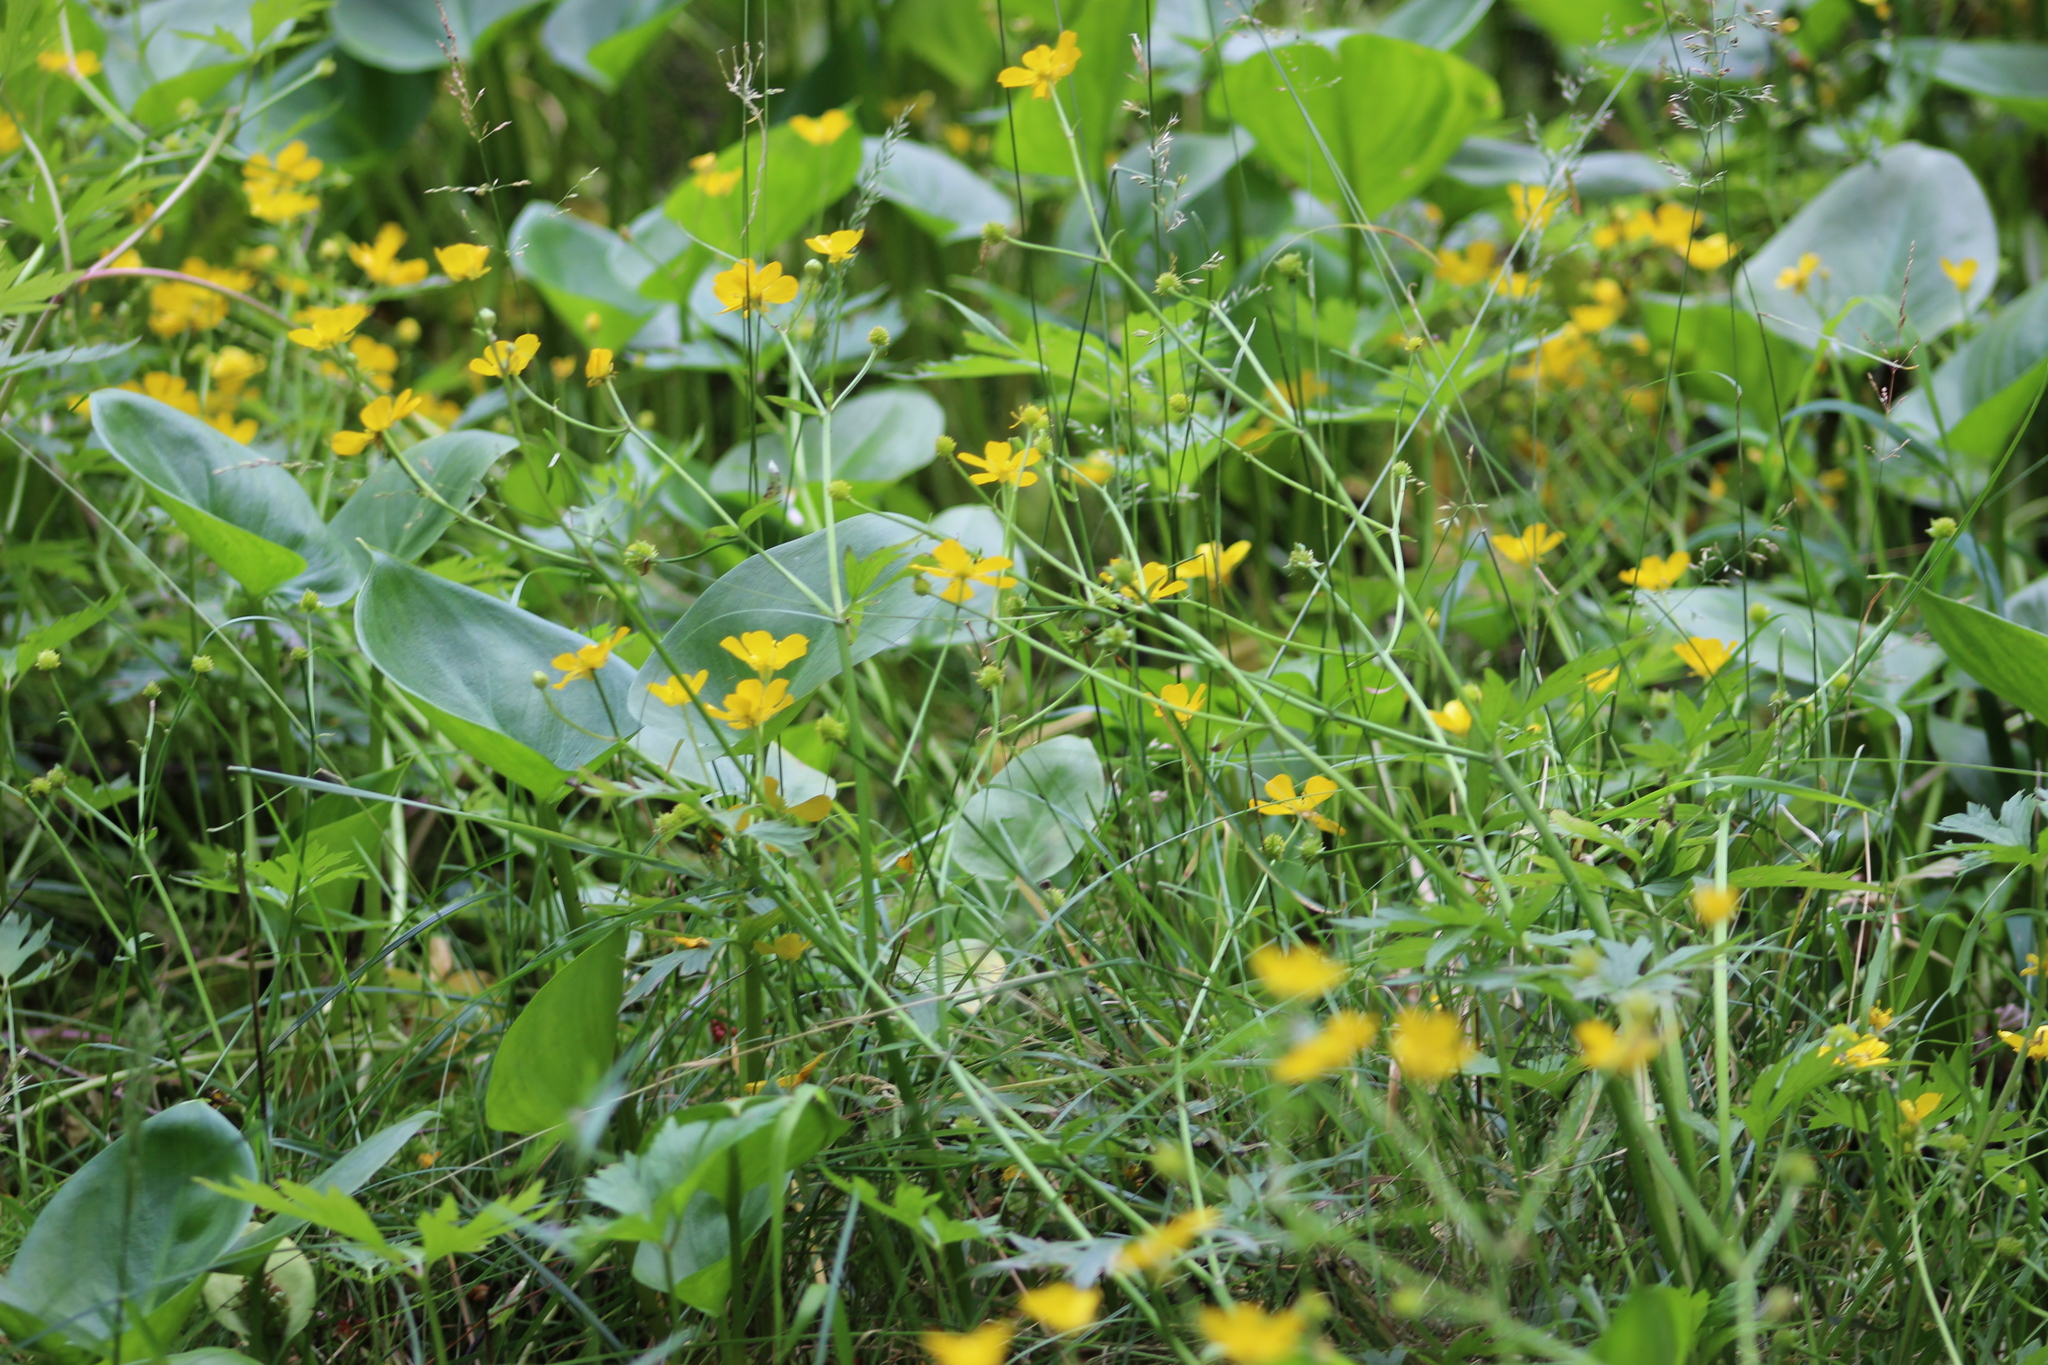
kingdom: Plantae
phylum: Tracheophyta
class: Magnoliopsida
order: Ranunculales
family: Ranunculaceae
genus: Ranunculus
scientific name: Ranunculus repens
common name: Creeping buttercup
